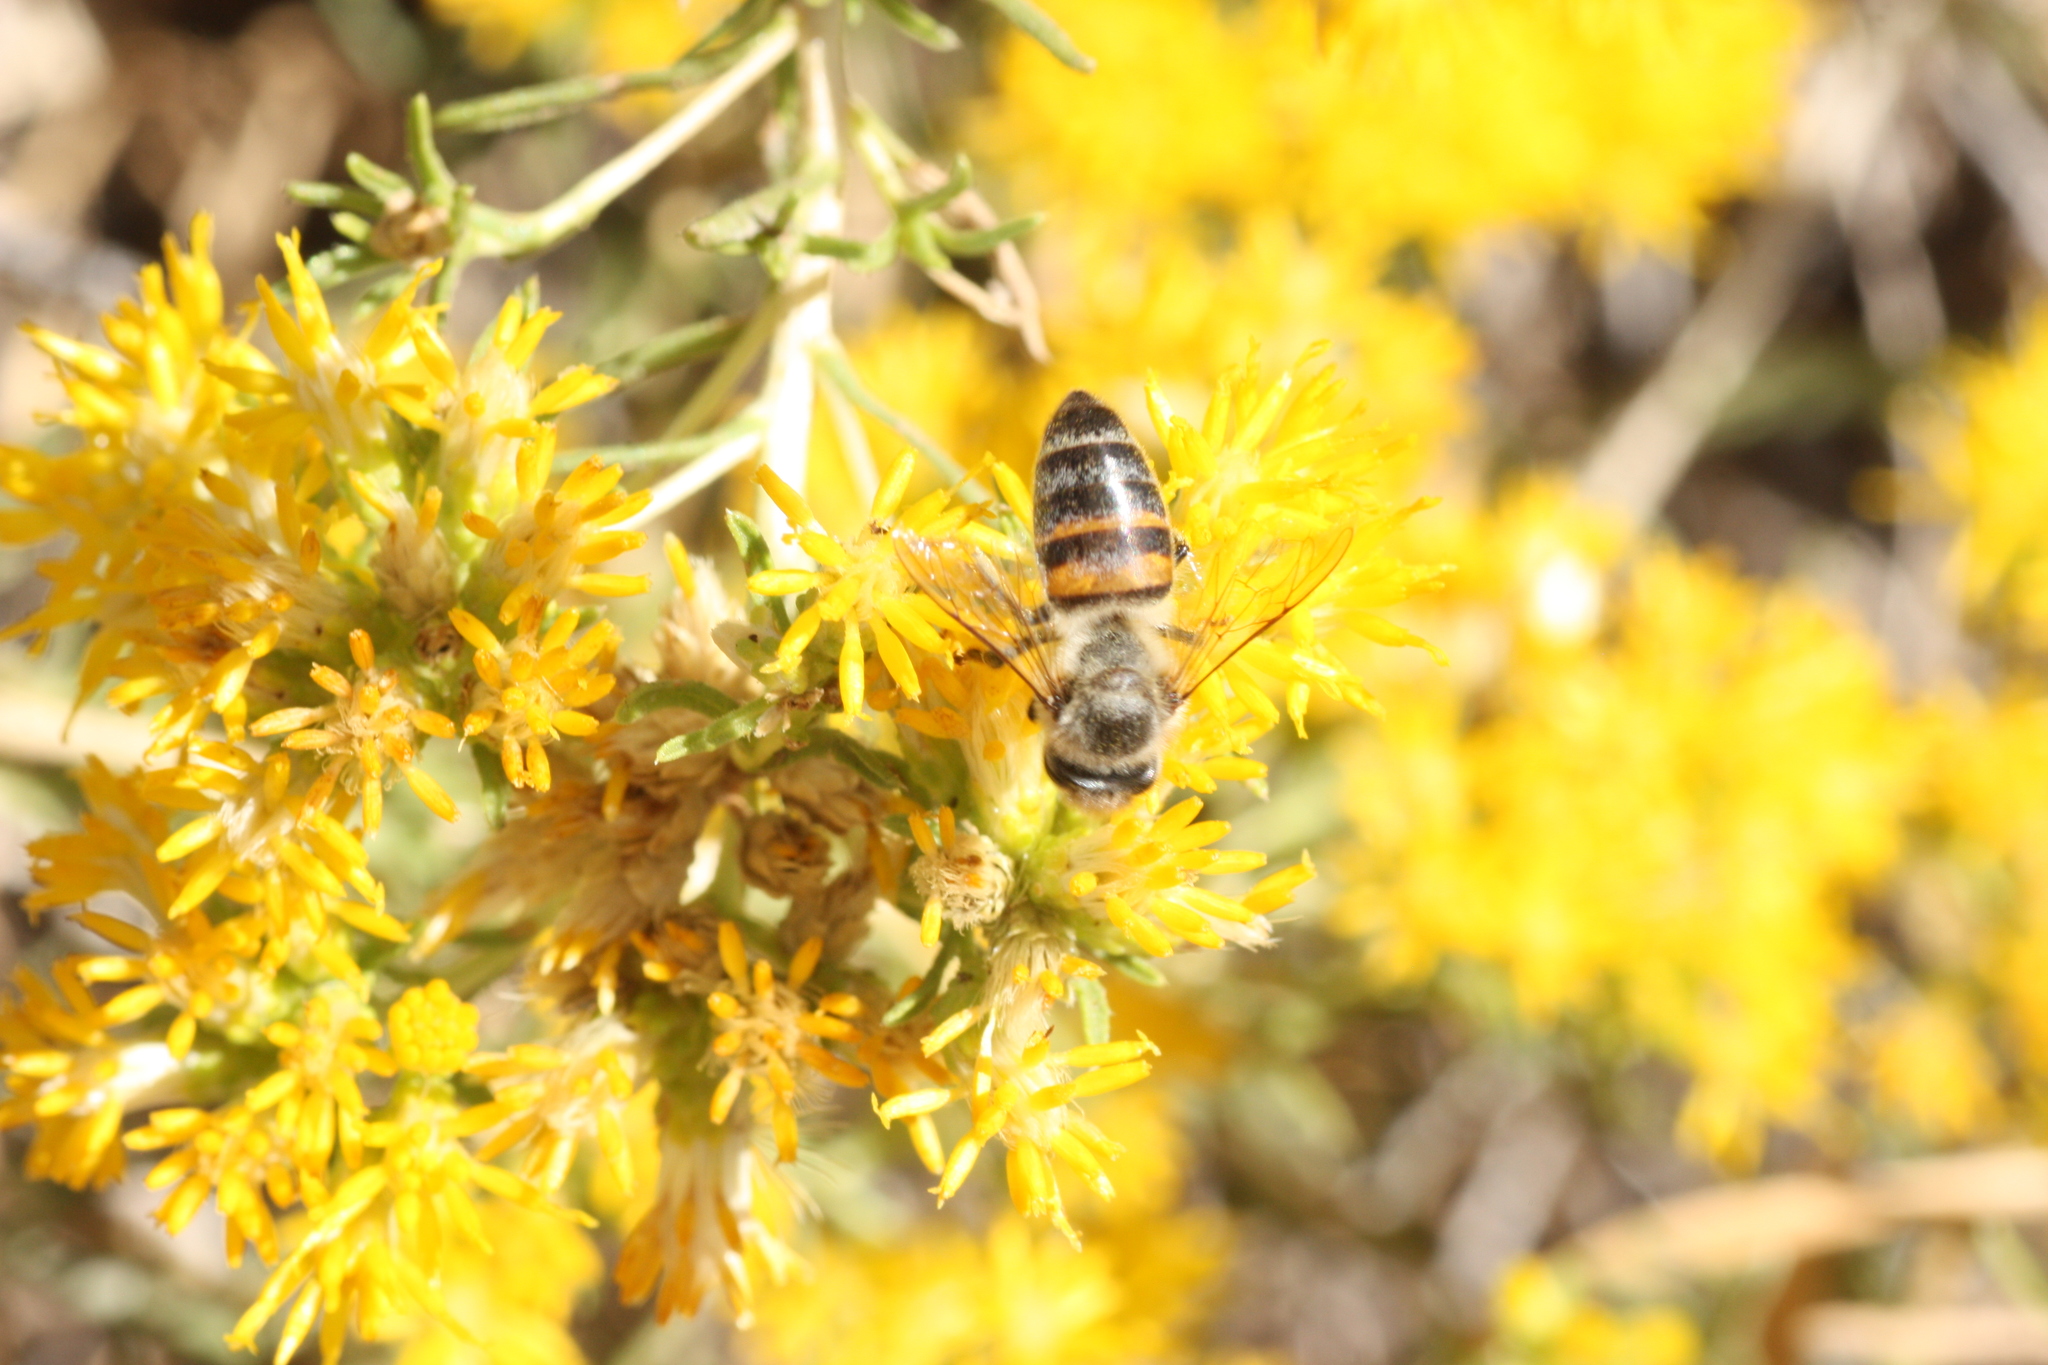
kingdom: Animalia
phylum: Arthropoda
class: Insecta
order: Hymenoptera
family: Apidae
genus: Apis
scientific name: Apis mellifera
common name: Honey bee
